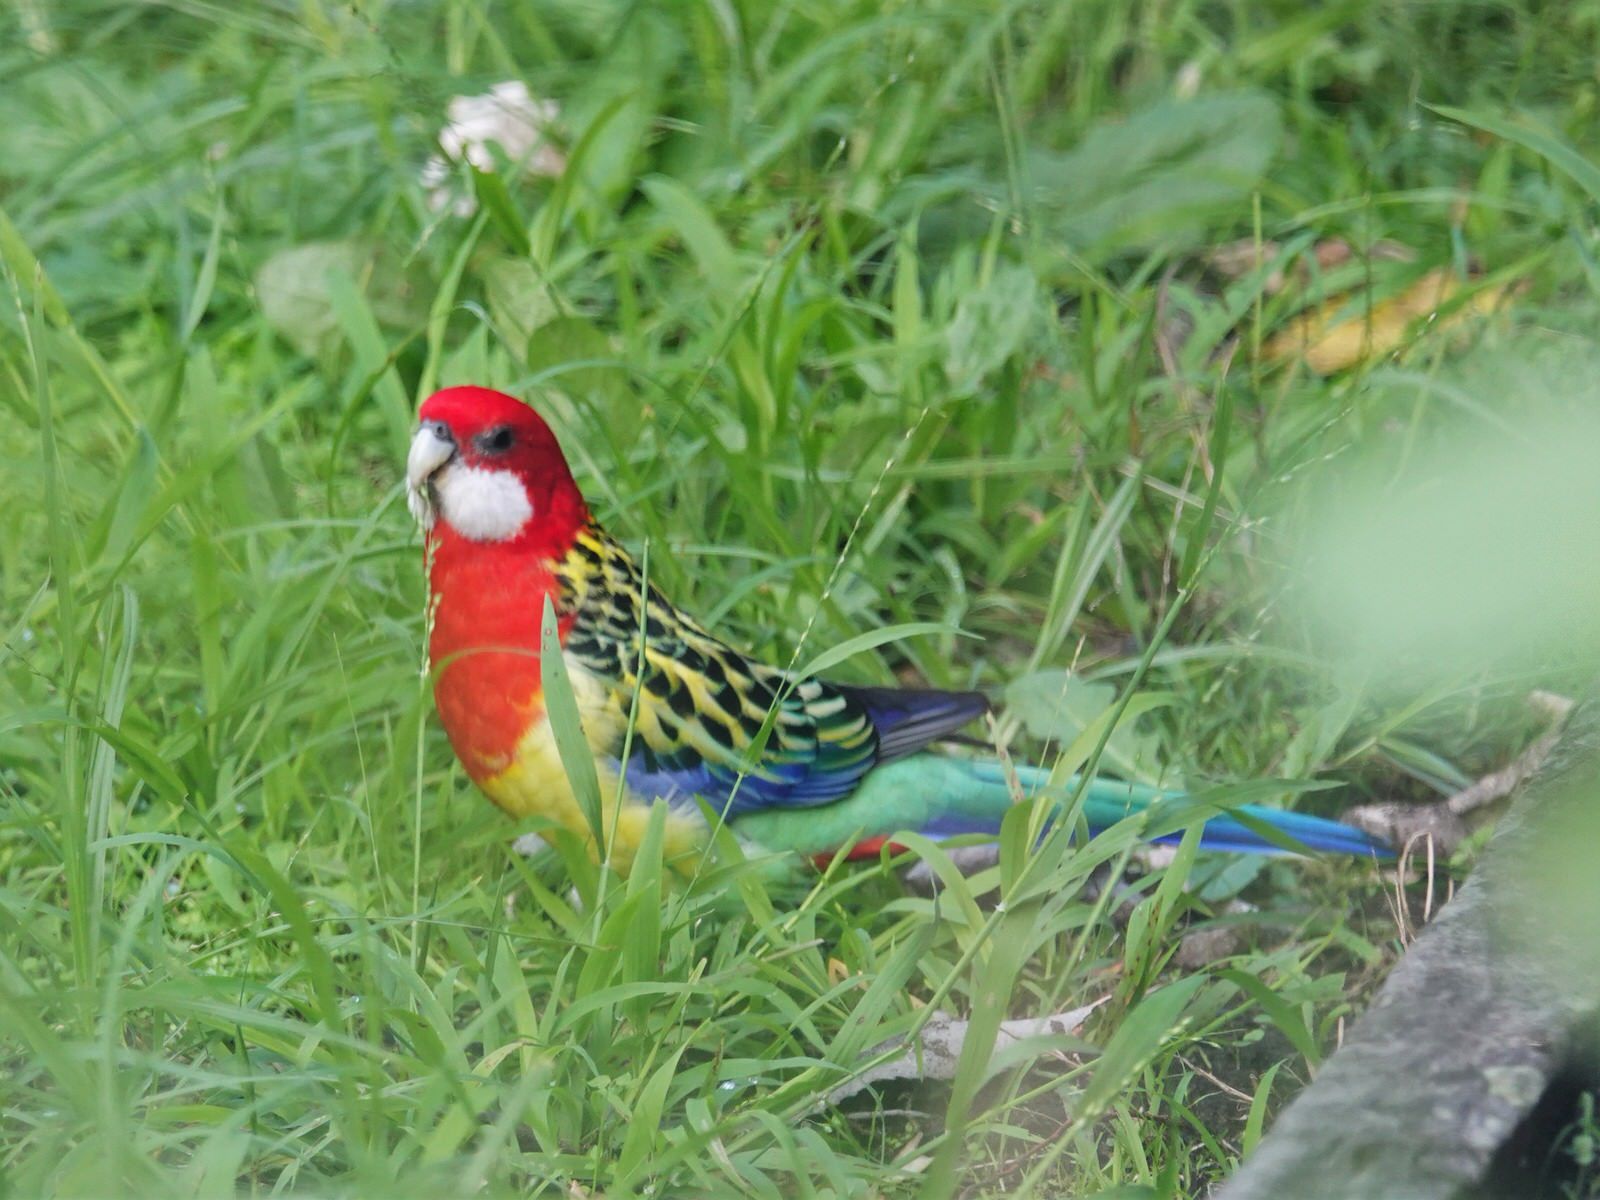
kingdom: Animalia
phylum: Chordata
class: Aves
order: Psittaciformes
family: Psittacidae
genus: Platycercus
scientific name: Platycercus eximius
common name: Eastern rosella
